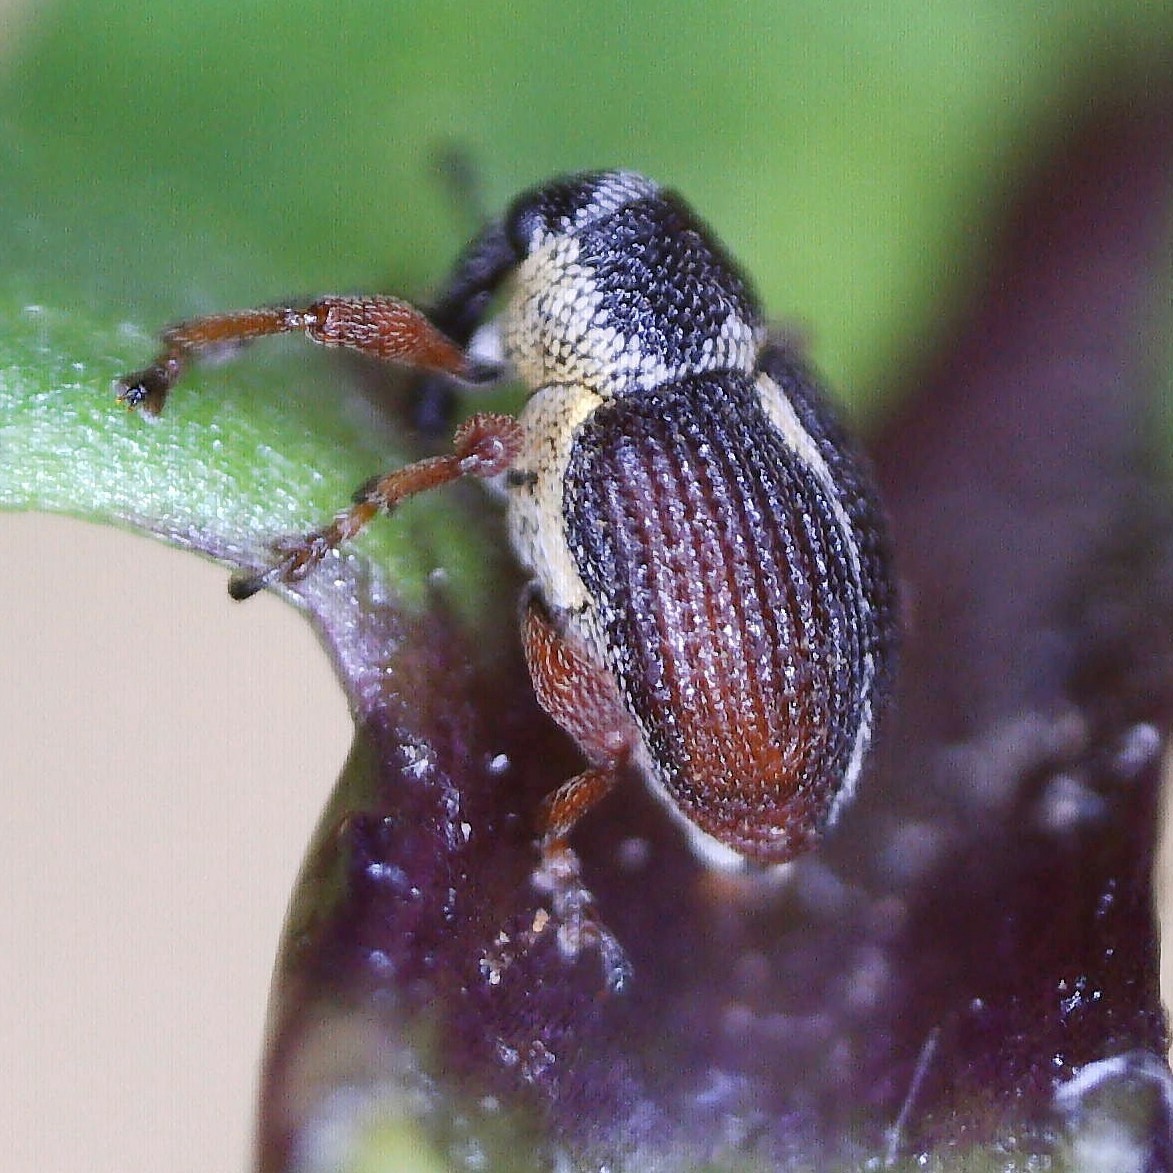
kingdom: Animalia
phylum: Arthropoda
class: Insecta
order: Coleoptera
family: Curculionidae
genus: Amalus
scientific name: Amalus scortillum
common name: Weevil
